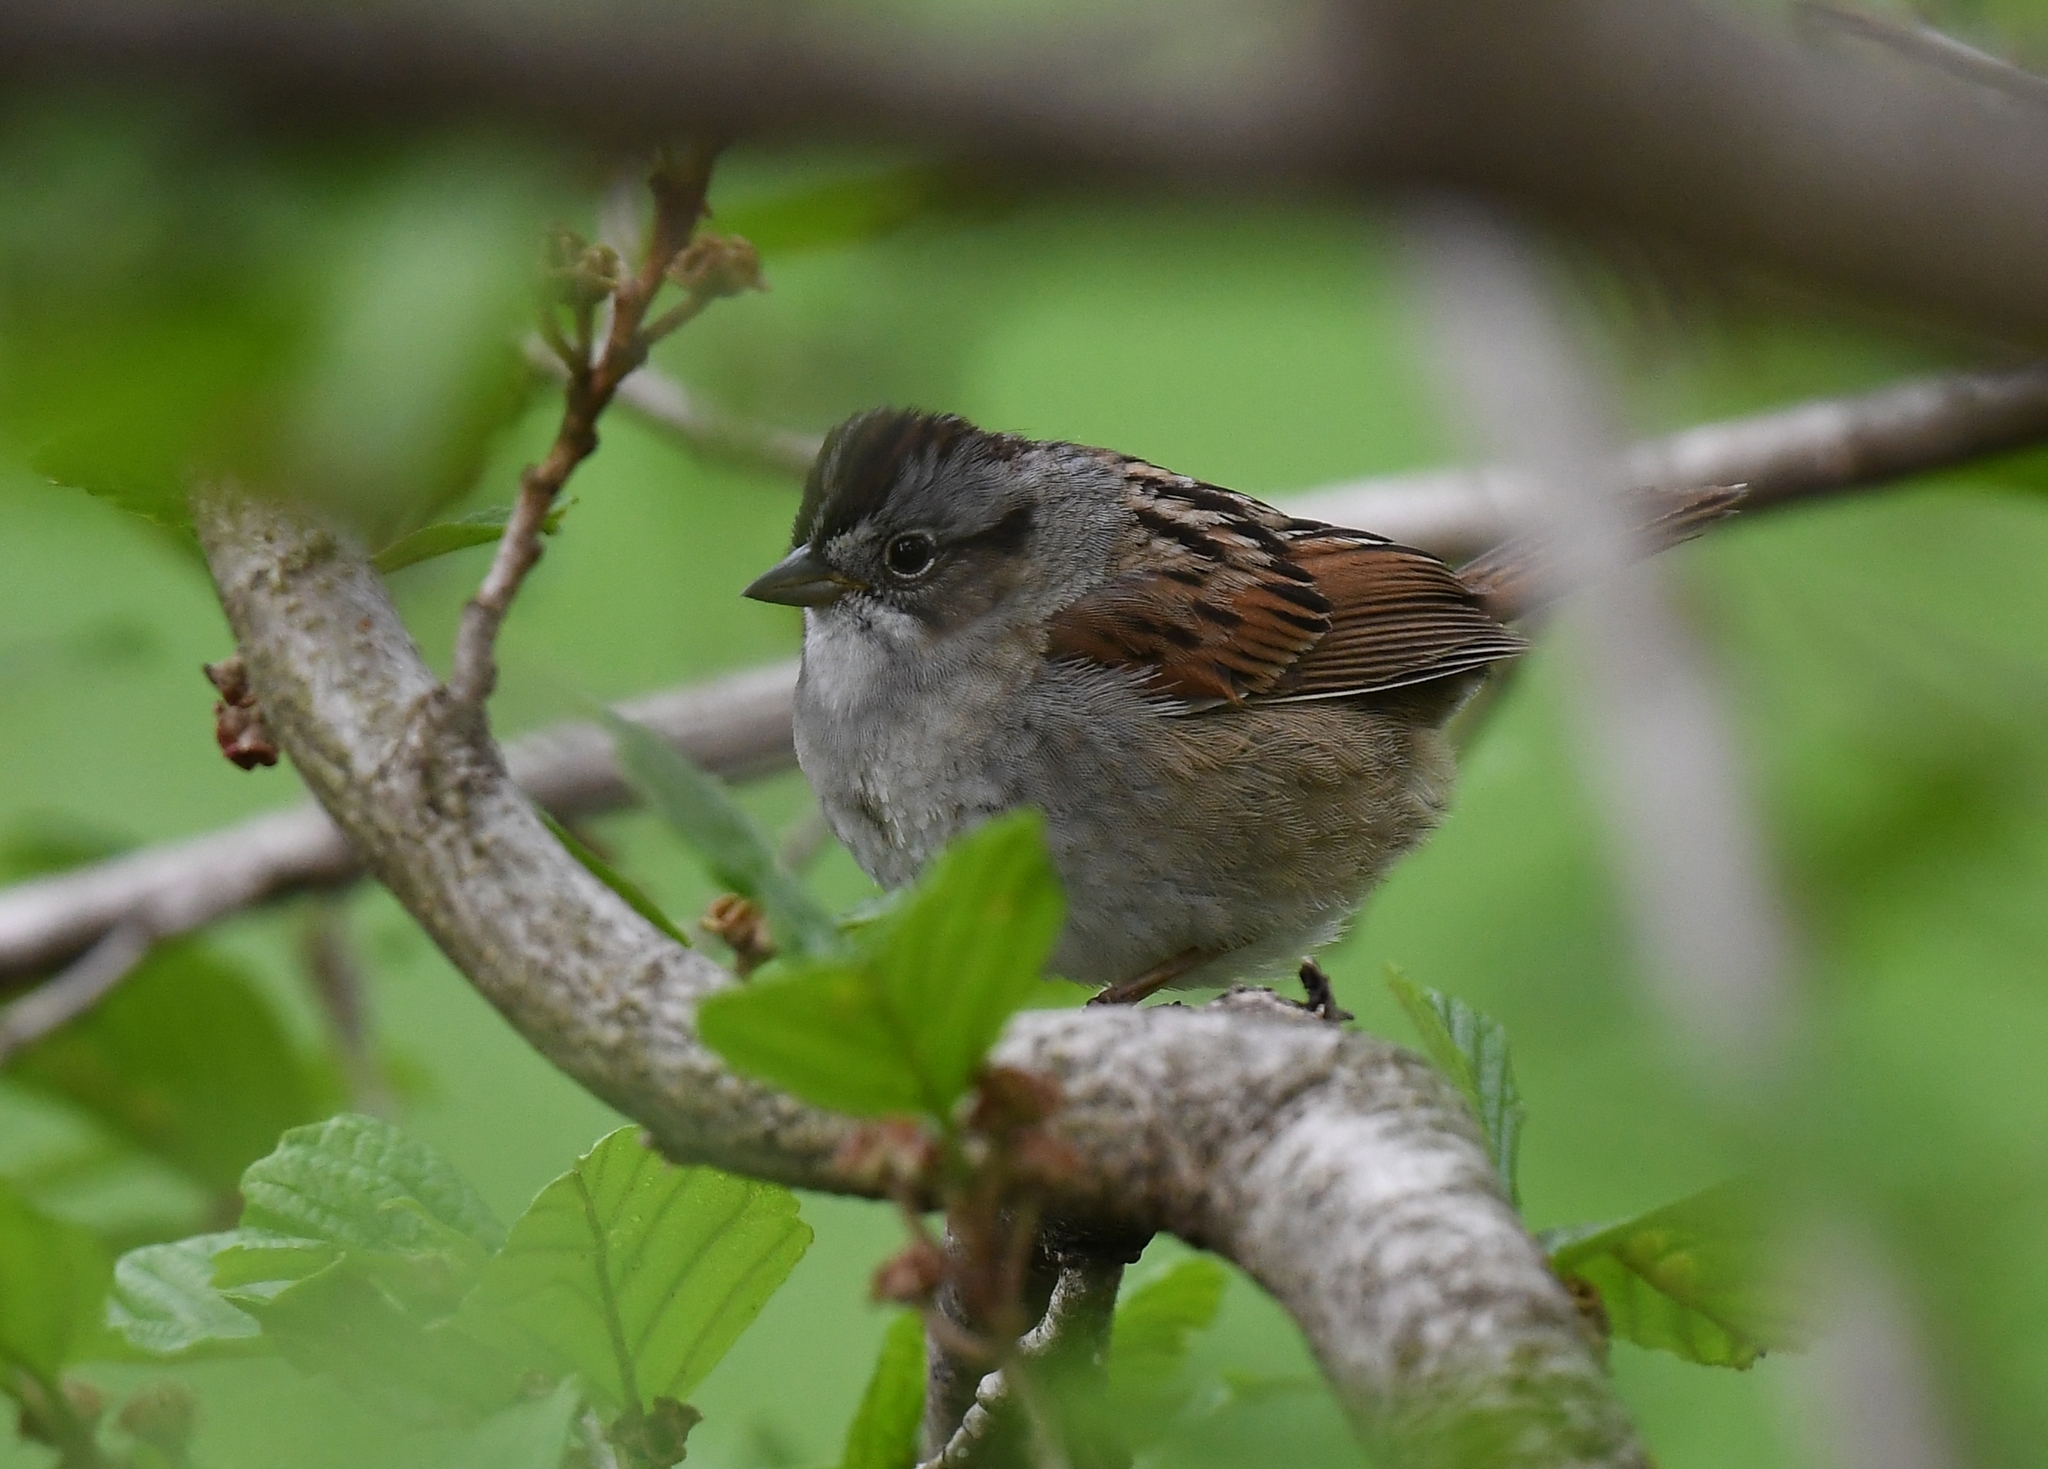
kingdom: Animalia
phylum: Chordata
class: Aves
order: Passeriformes
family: Passerellidae
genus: Melospiza
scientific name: Melospiza georgiana
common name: Swamp sparrow
